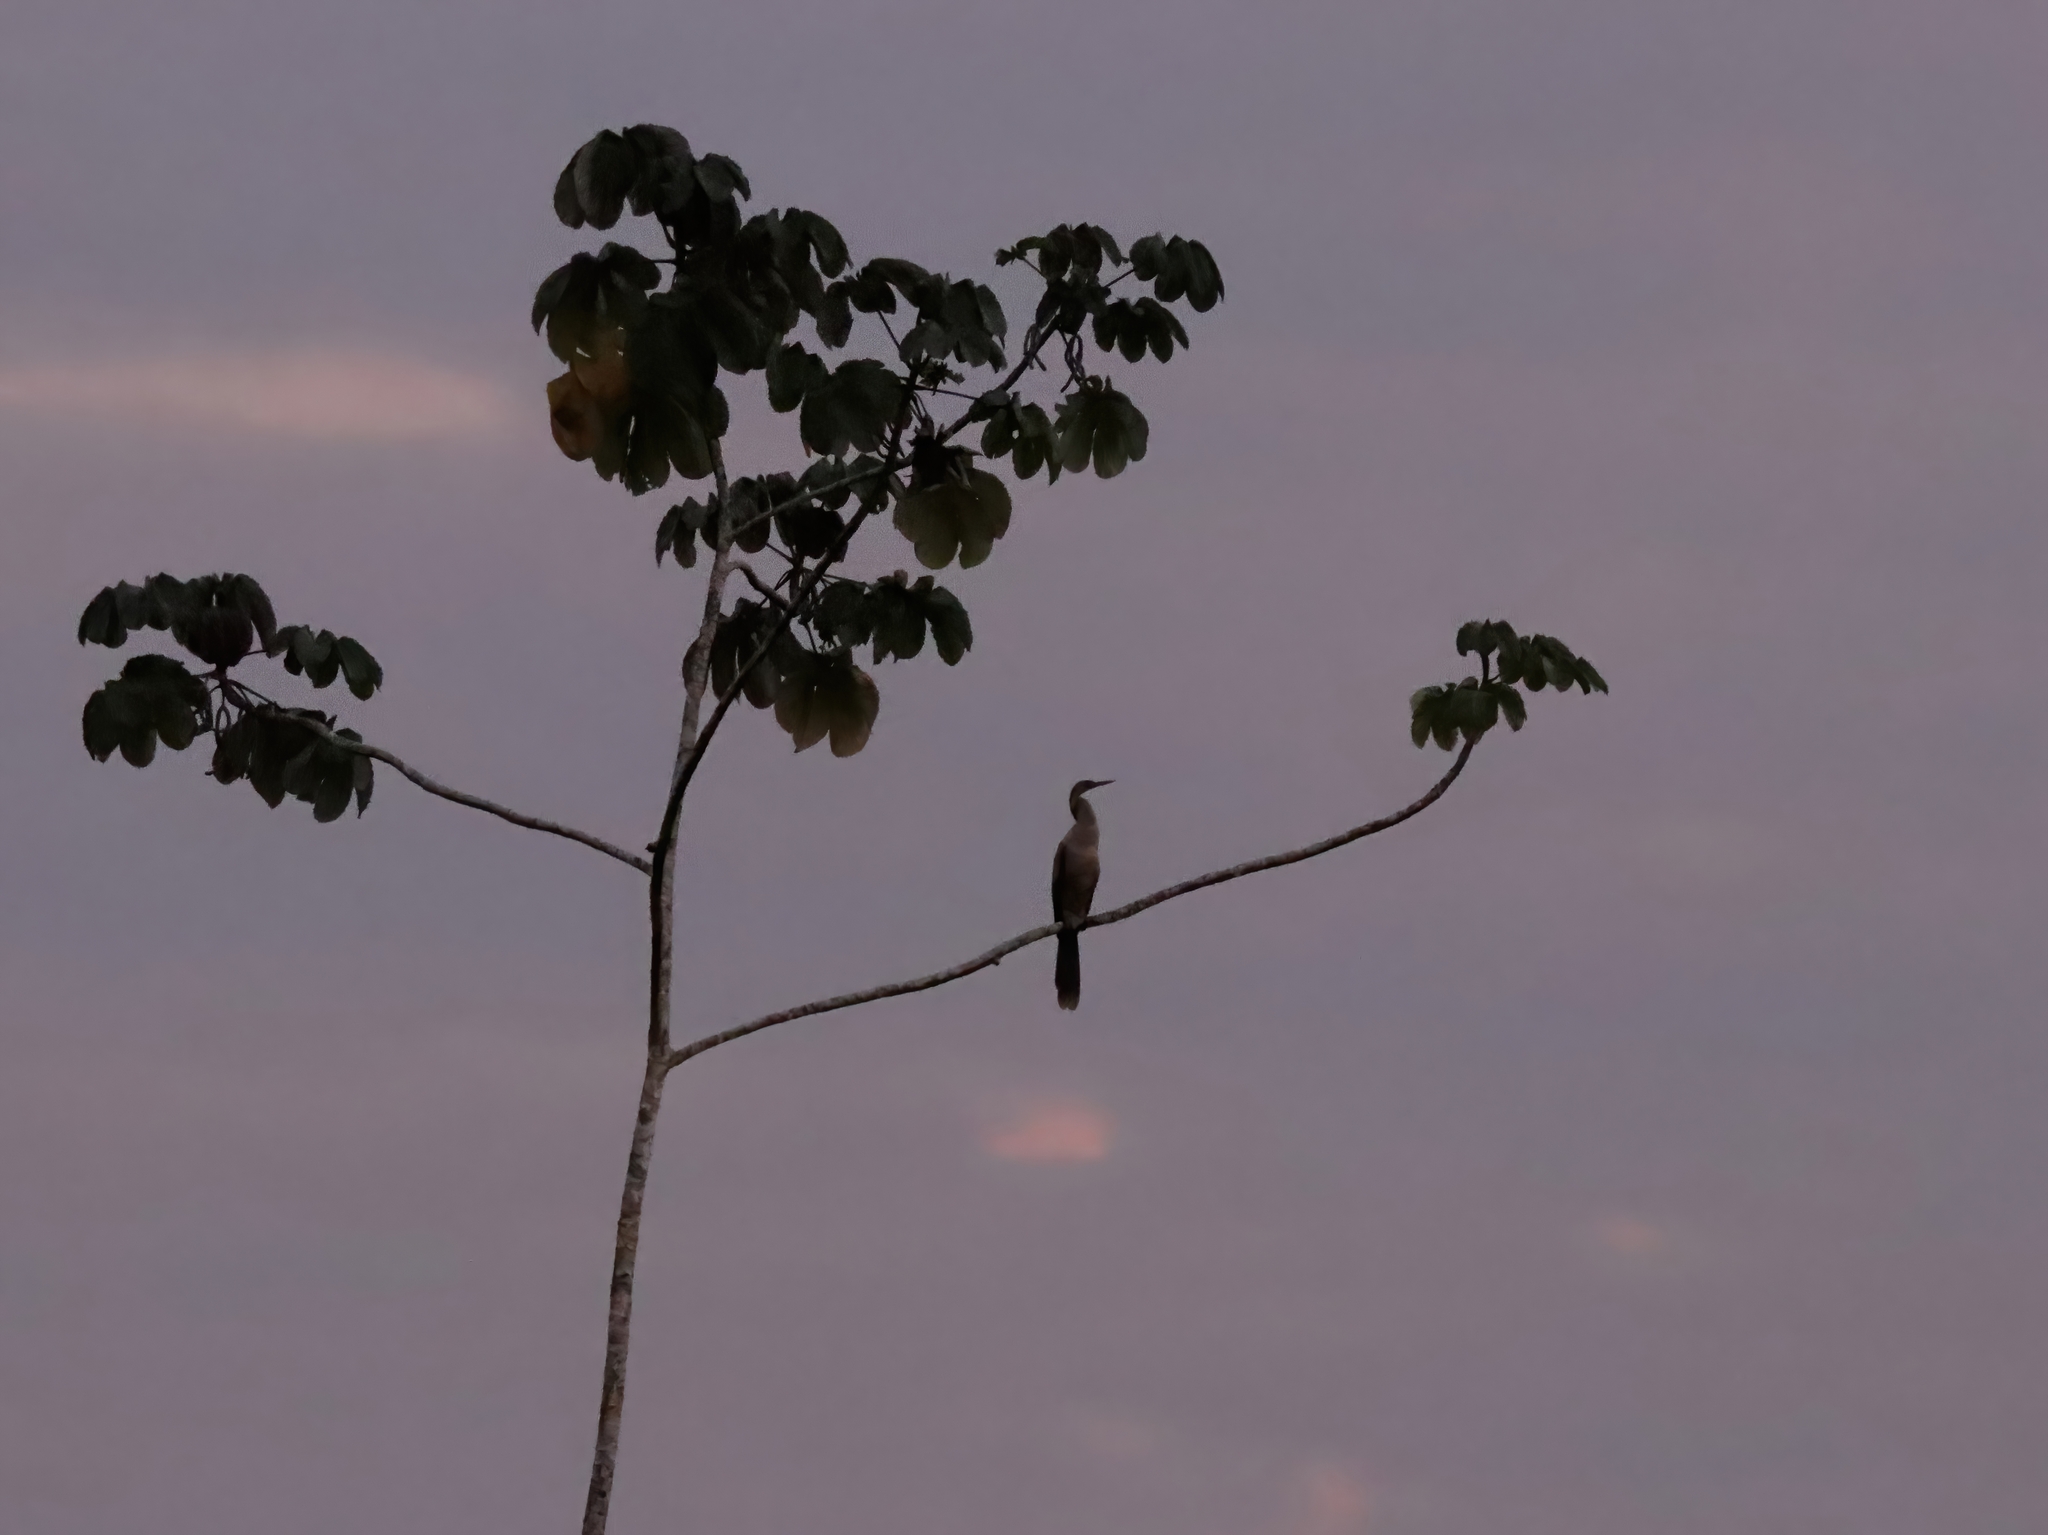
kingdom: Animalia
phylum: Chordata
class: Aves
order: Suliformes
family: Anhingidae
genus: Anhinga
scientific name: Anhinga anhinga
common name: Anhinga
